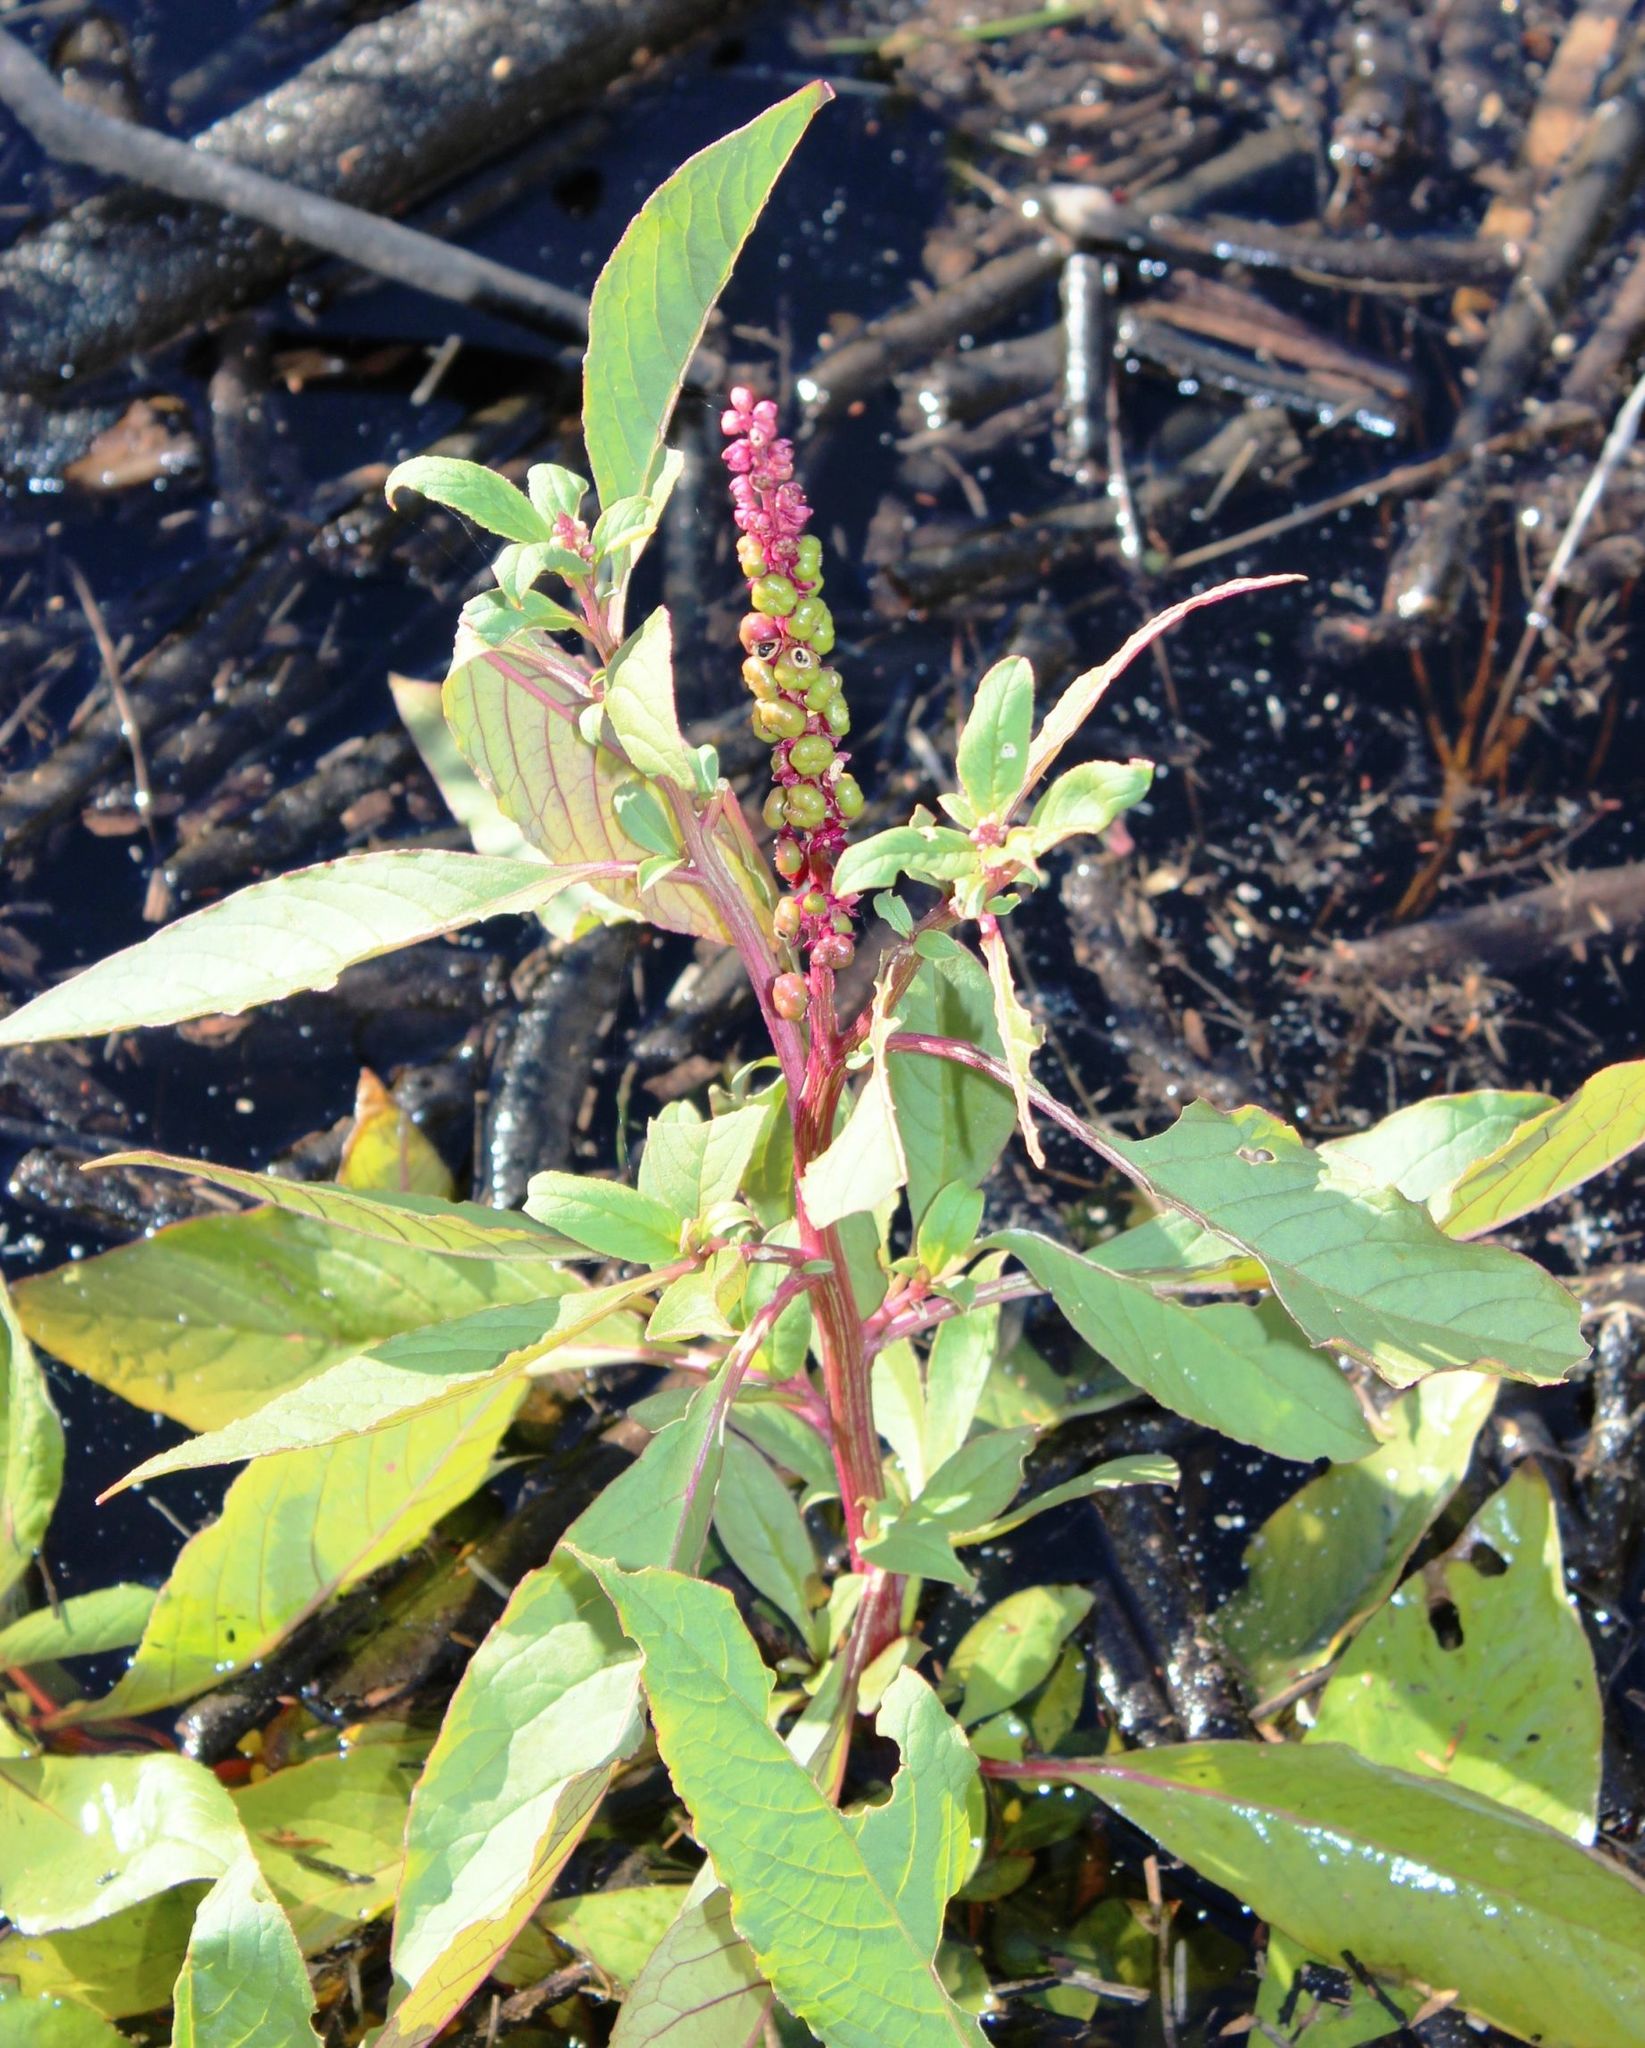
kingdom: Plantae
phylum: Tracheophyta
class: Magnoliopsida
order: Caryophyllales
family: Phytolaccaceae
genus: Phytolacca
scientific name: Phytolacca icosandra
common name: Button pokeweed
